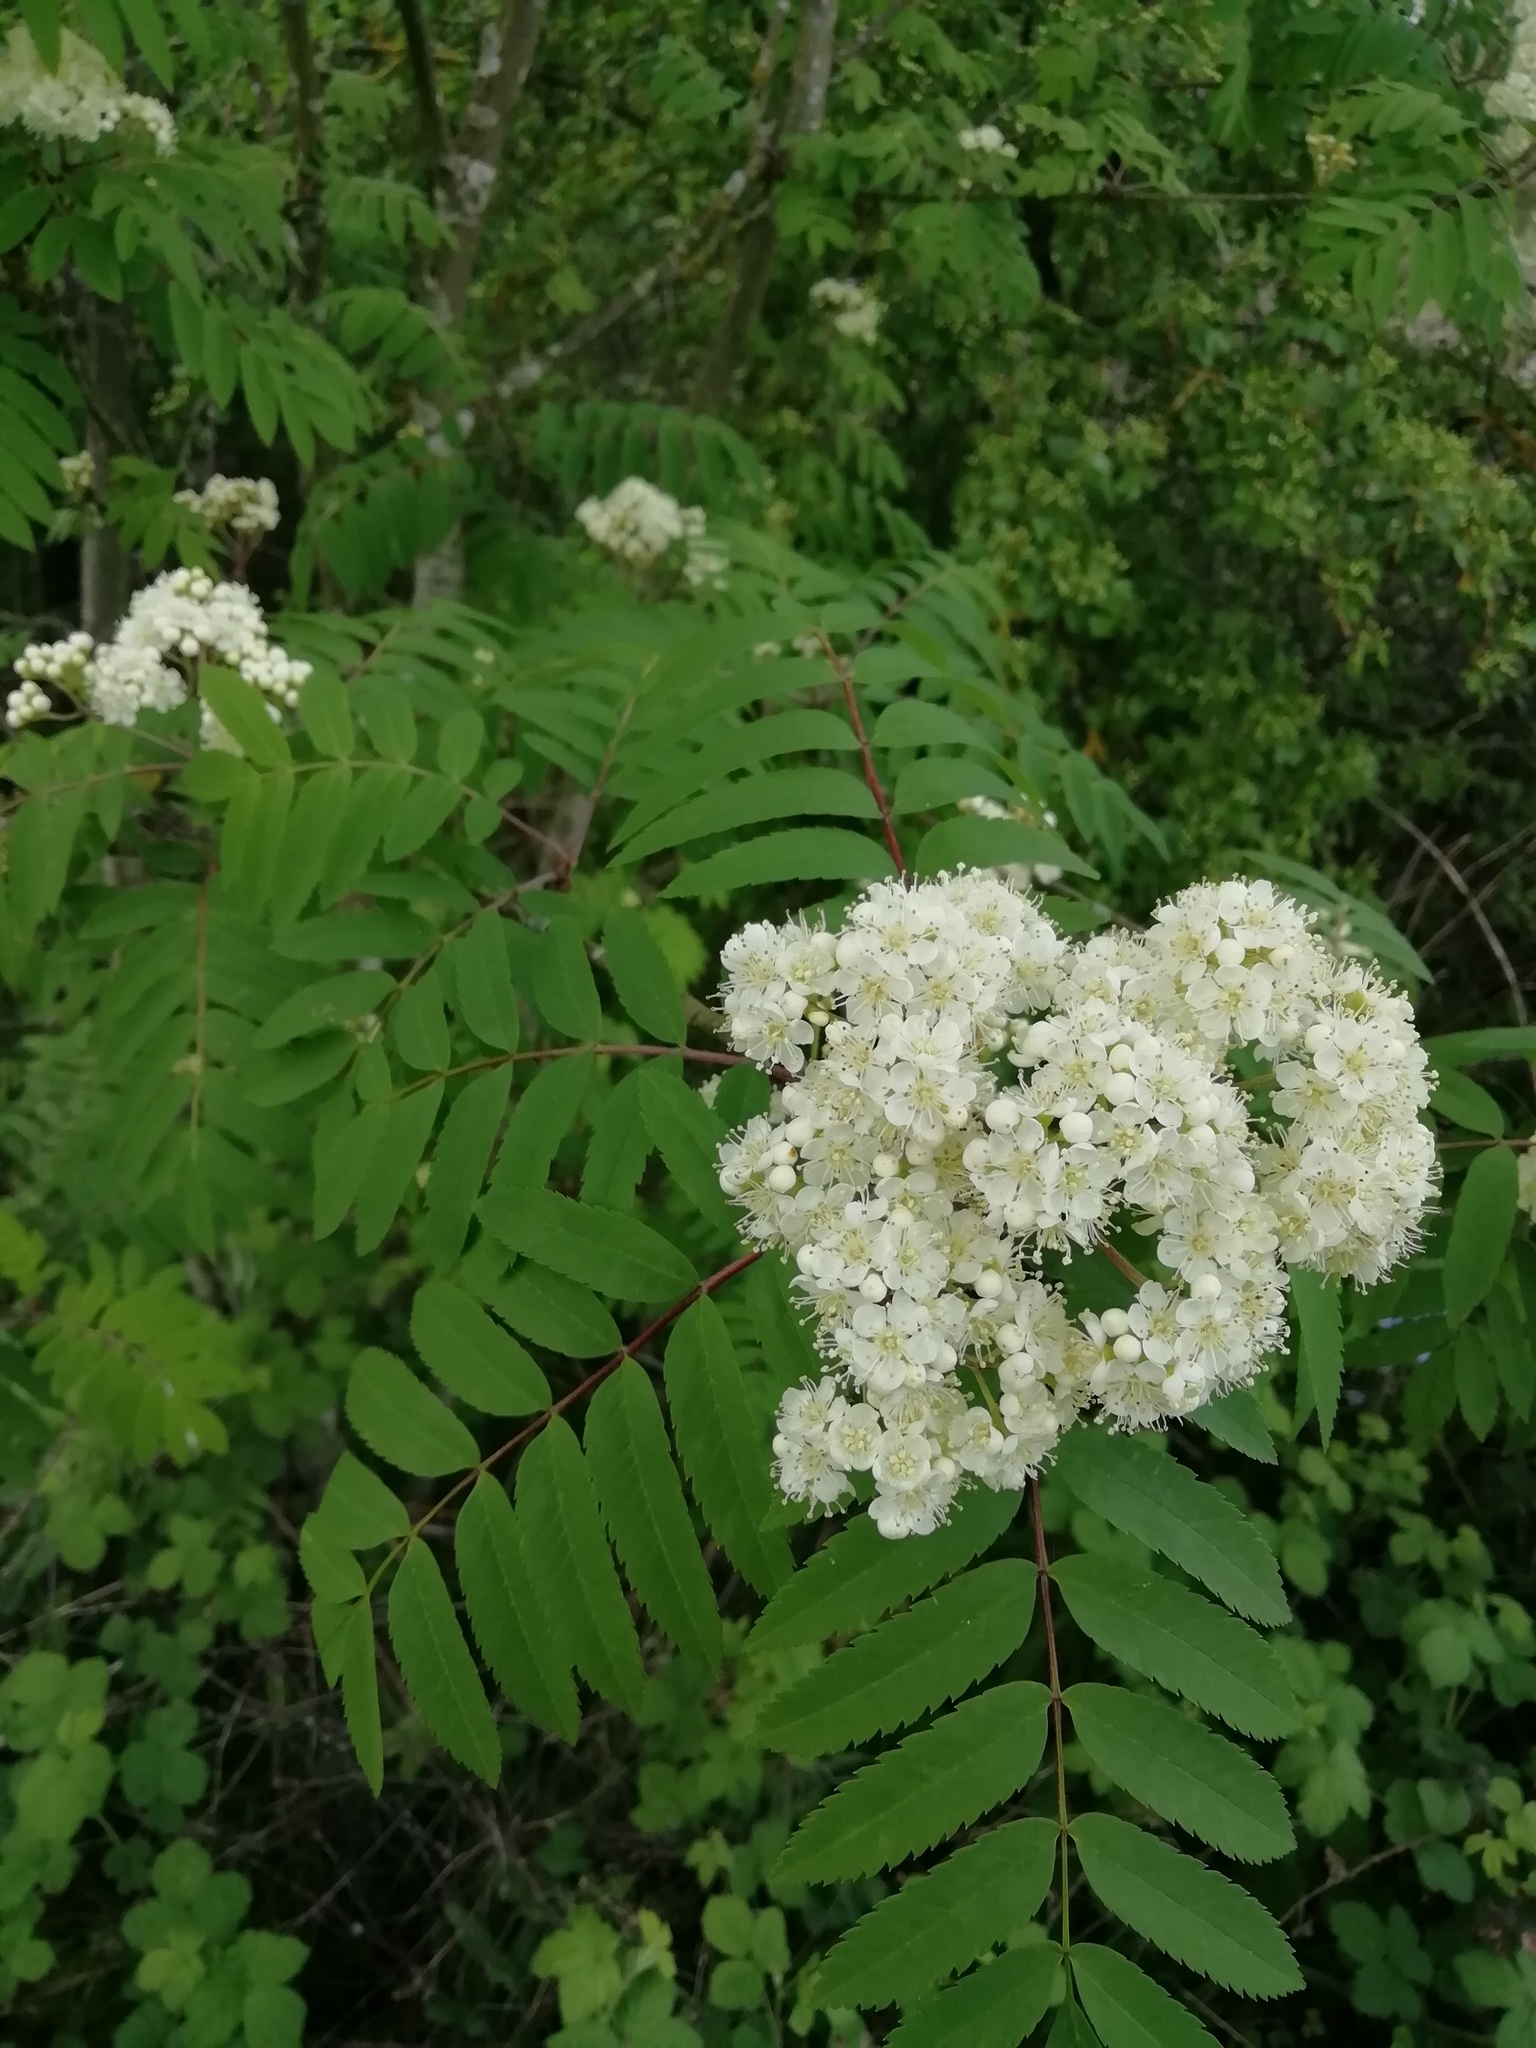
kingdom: Plantae
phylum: Tracheophyta
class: Magnoliopsida
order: Rosales
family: Rosaceae
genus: Sorbus
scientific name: Sorbus aucuparia
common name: Rowan
